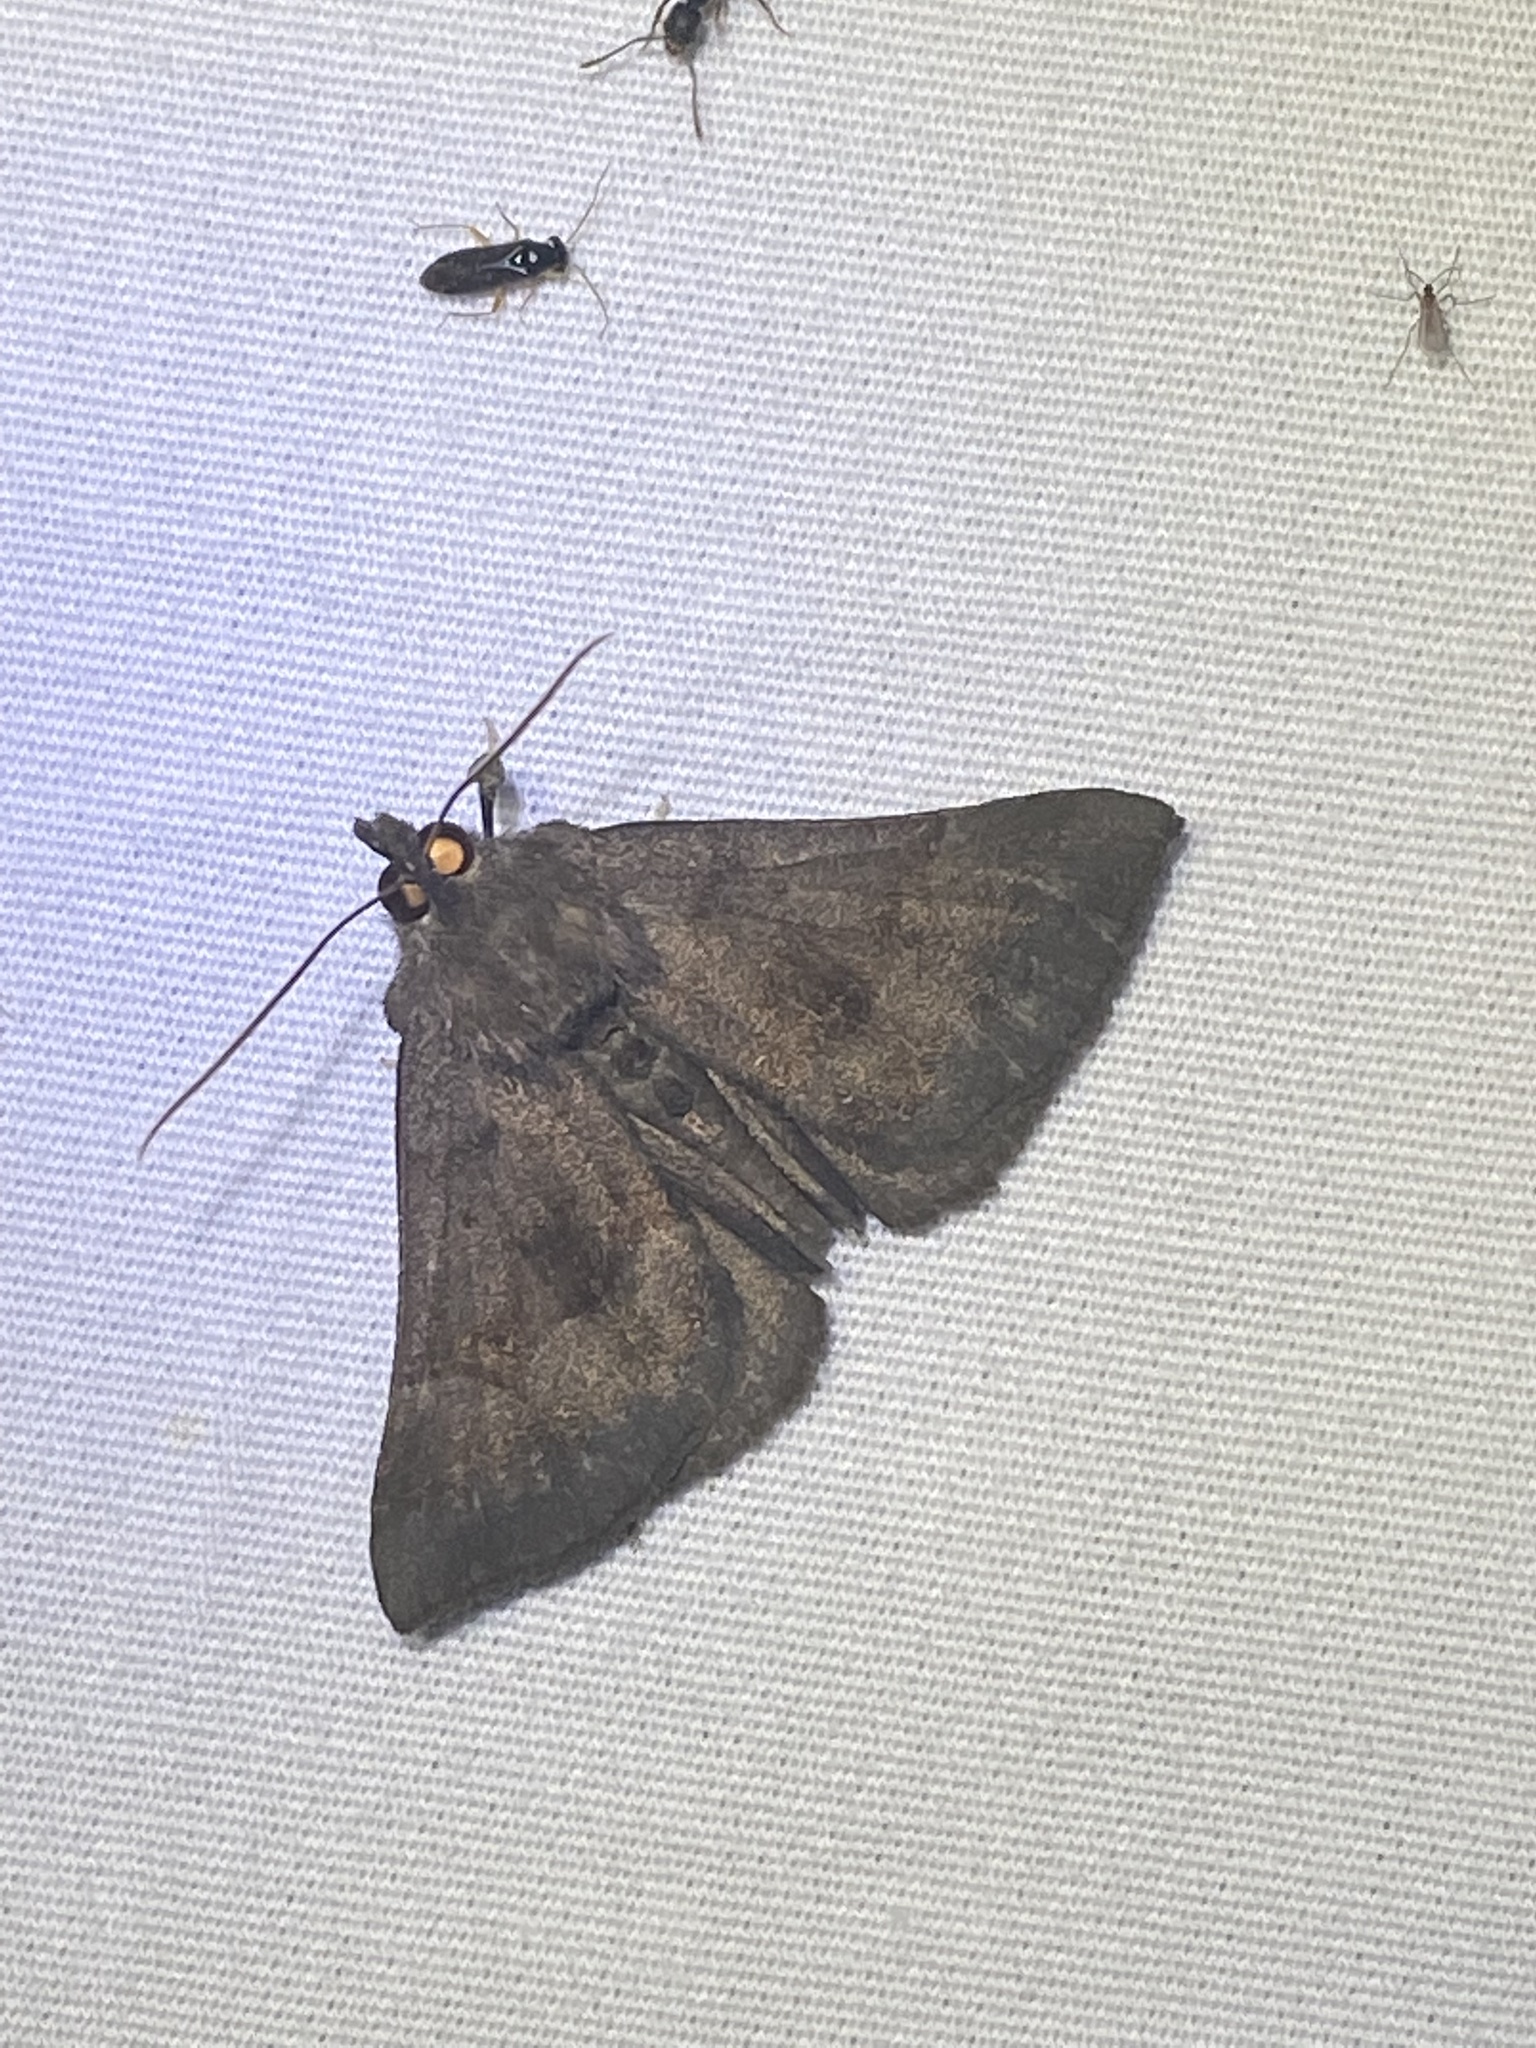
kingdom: Animalia
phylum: Arthropoda
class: Insecta
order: Lepidoptera
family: Erebidae
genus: Hypena
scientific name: Hypena madefactalis
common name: Gray-edged snout
